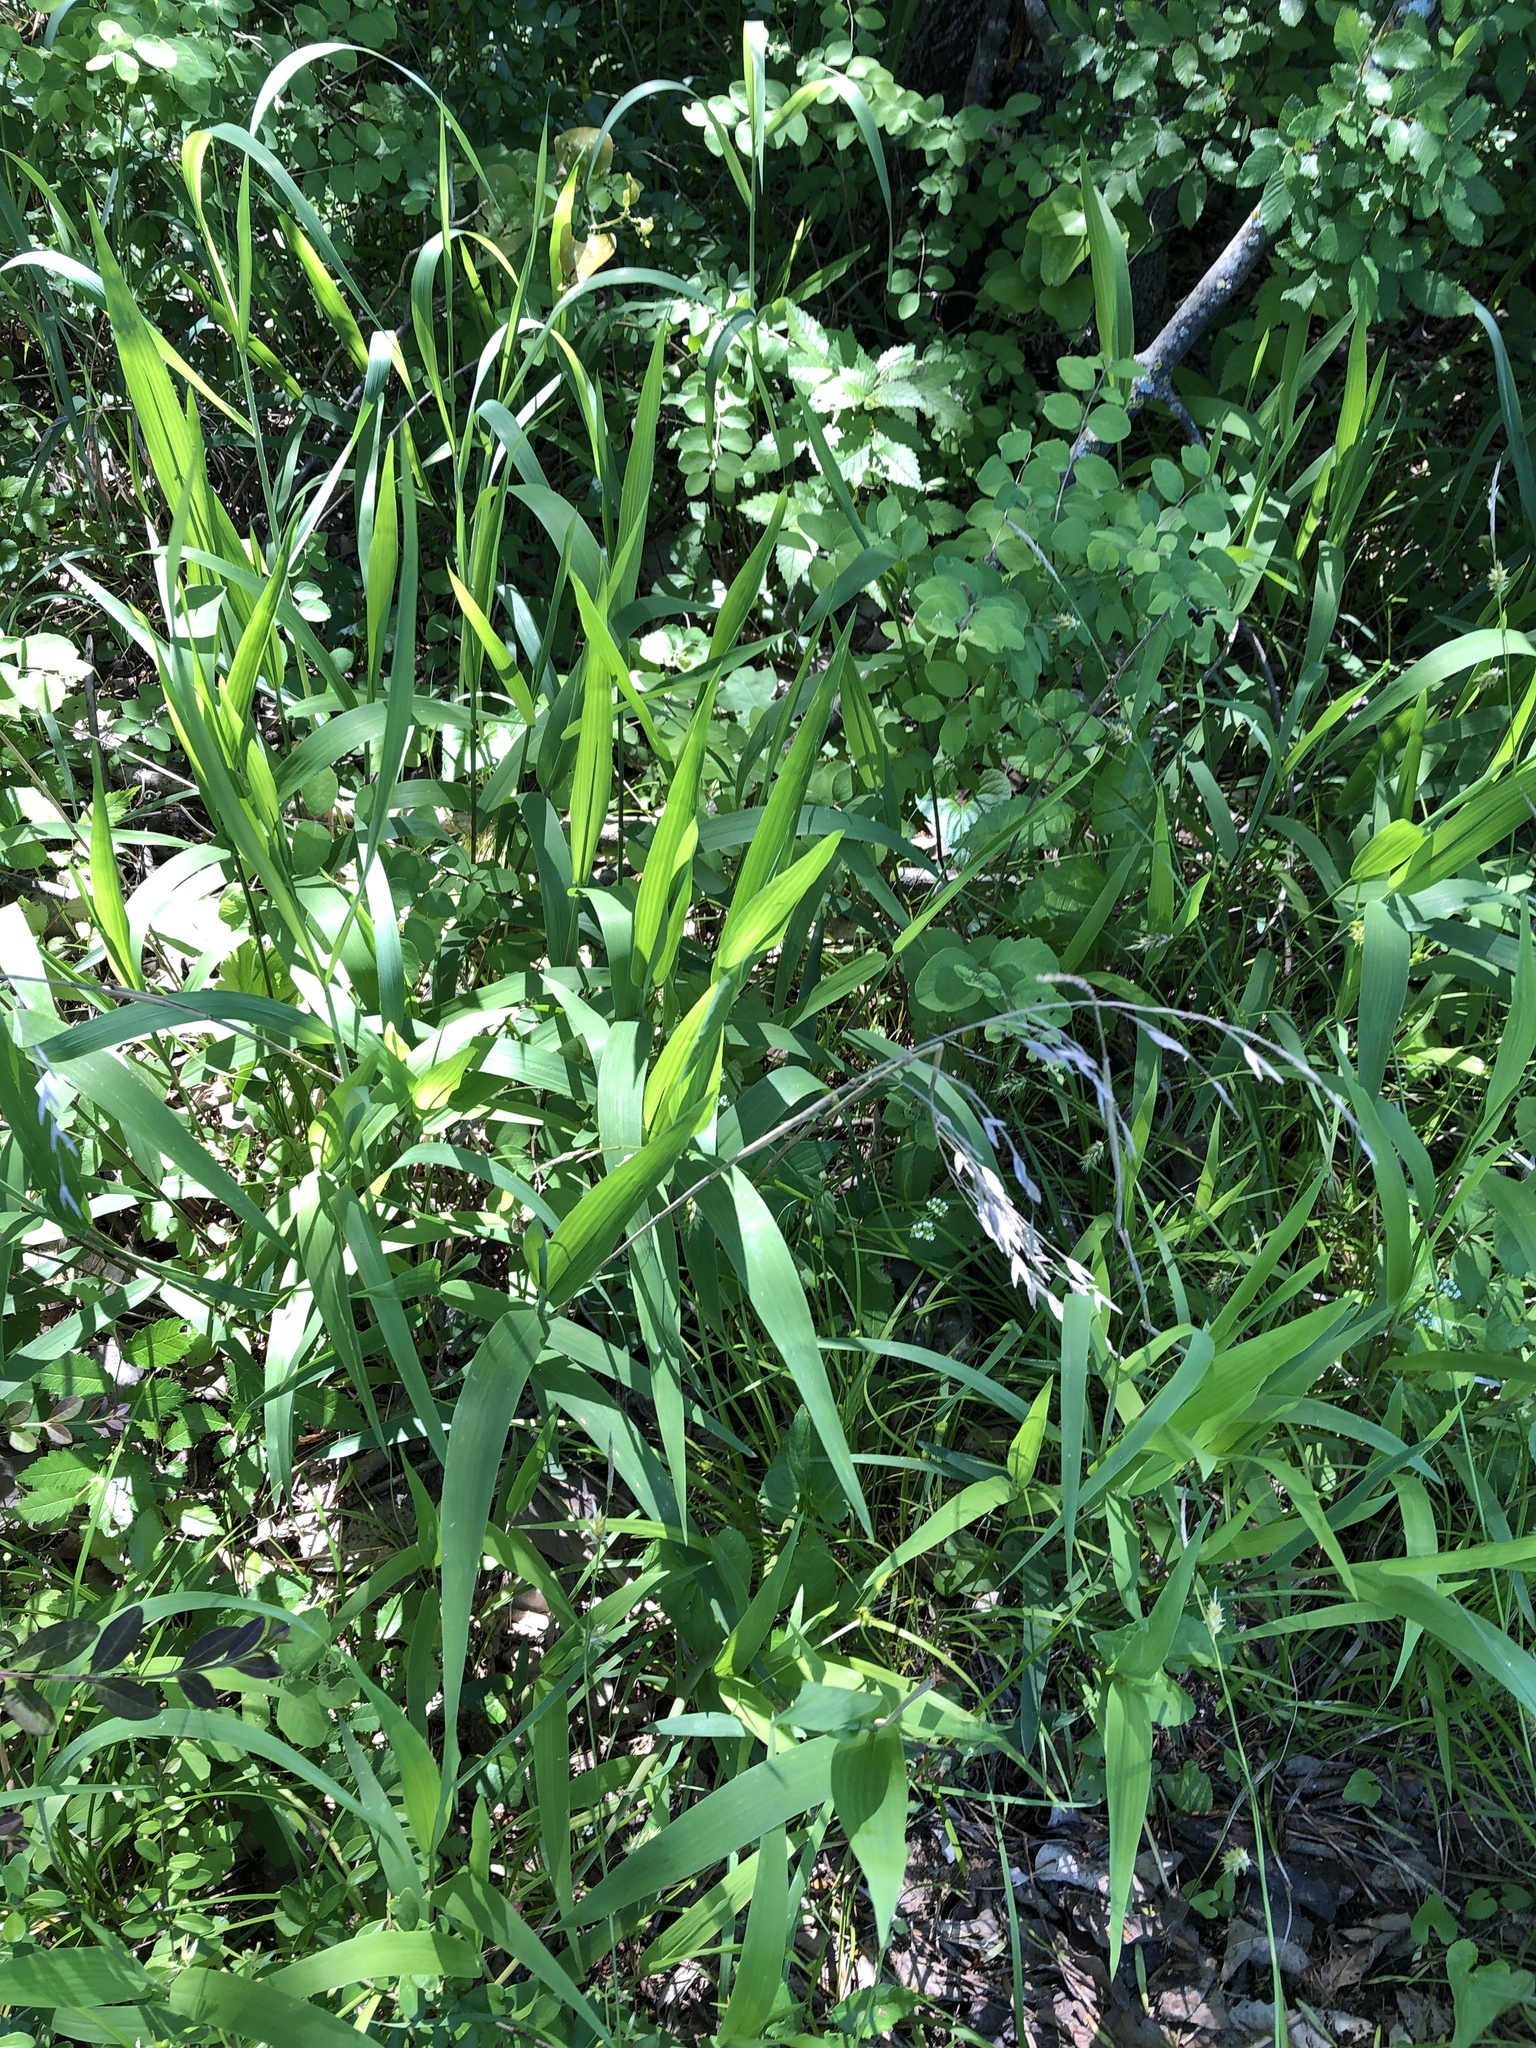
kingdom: Plantae
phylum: Tracheophyta
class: Liliopsida
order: Poales
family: Poaceae
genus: Chasmanthium
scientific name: Chasmanthium latifolium
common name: Broad-leaved chasmanthium
